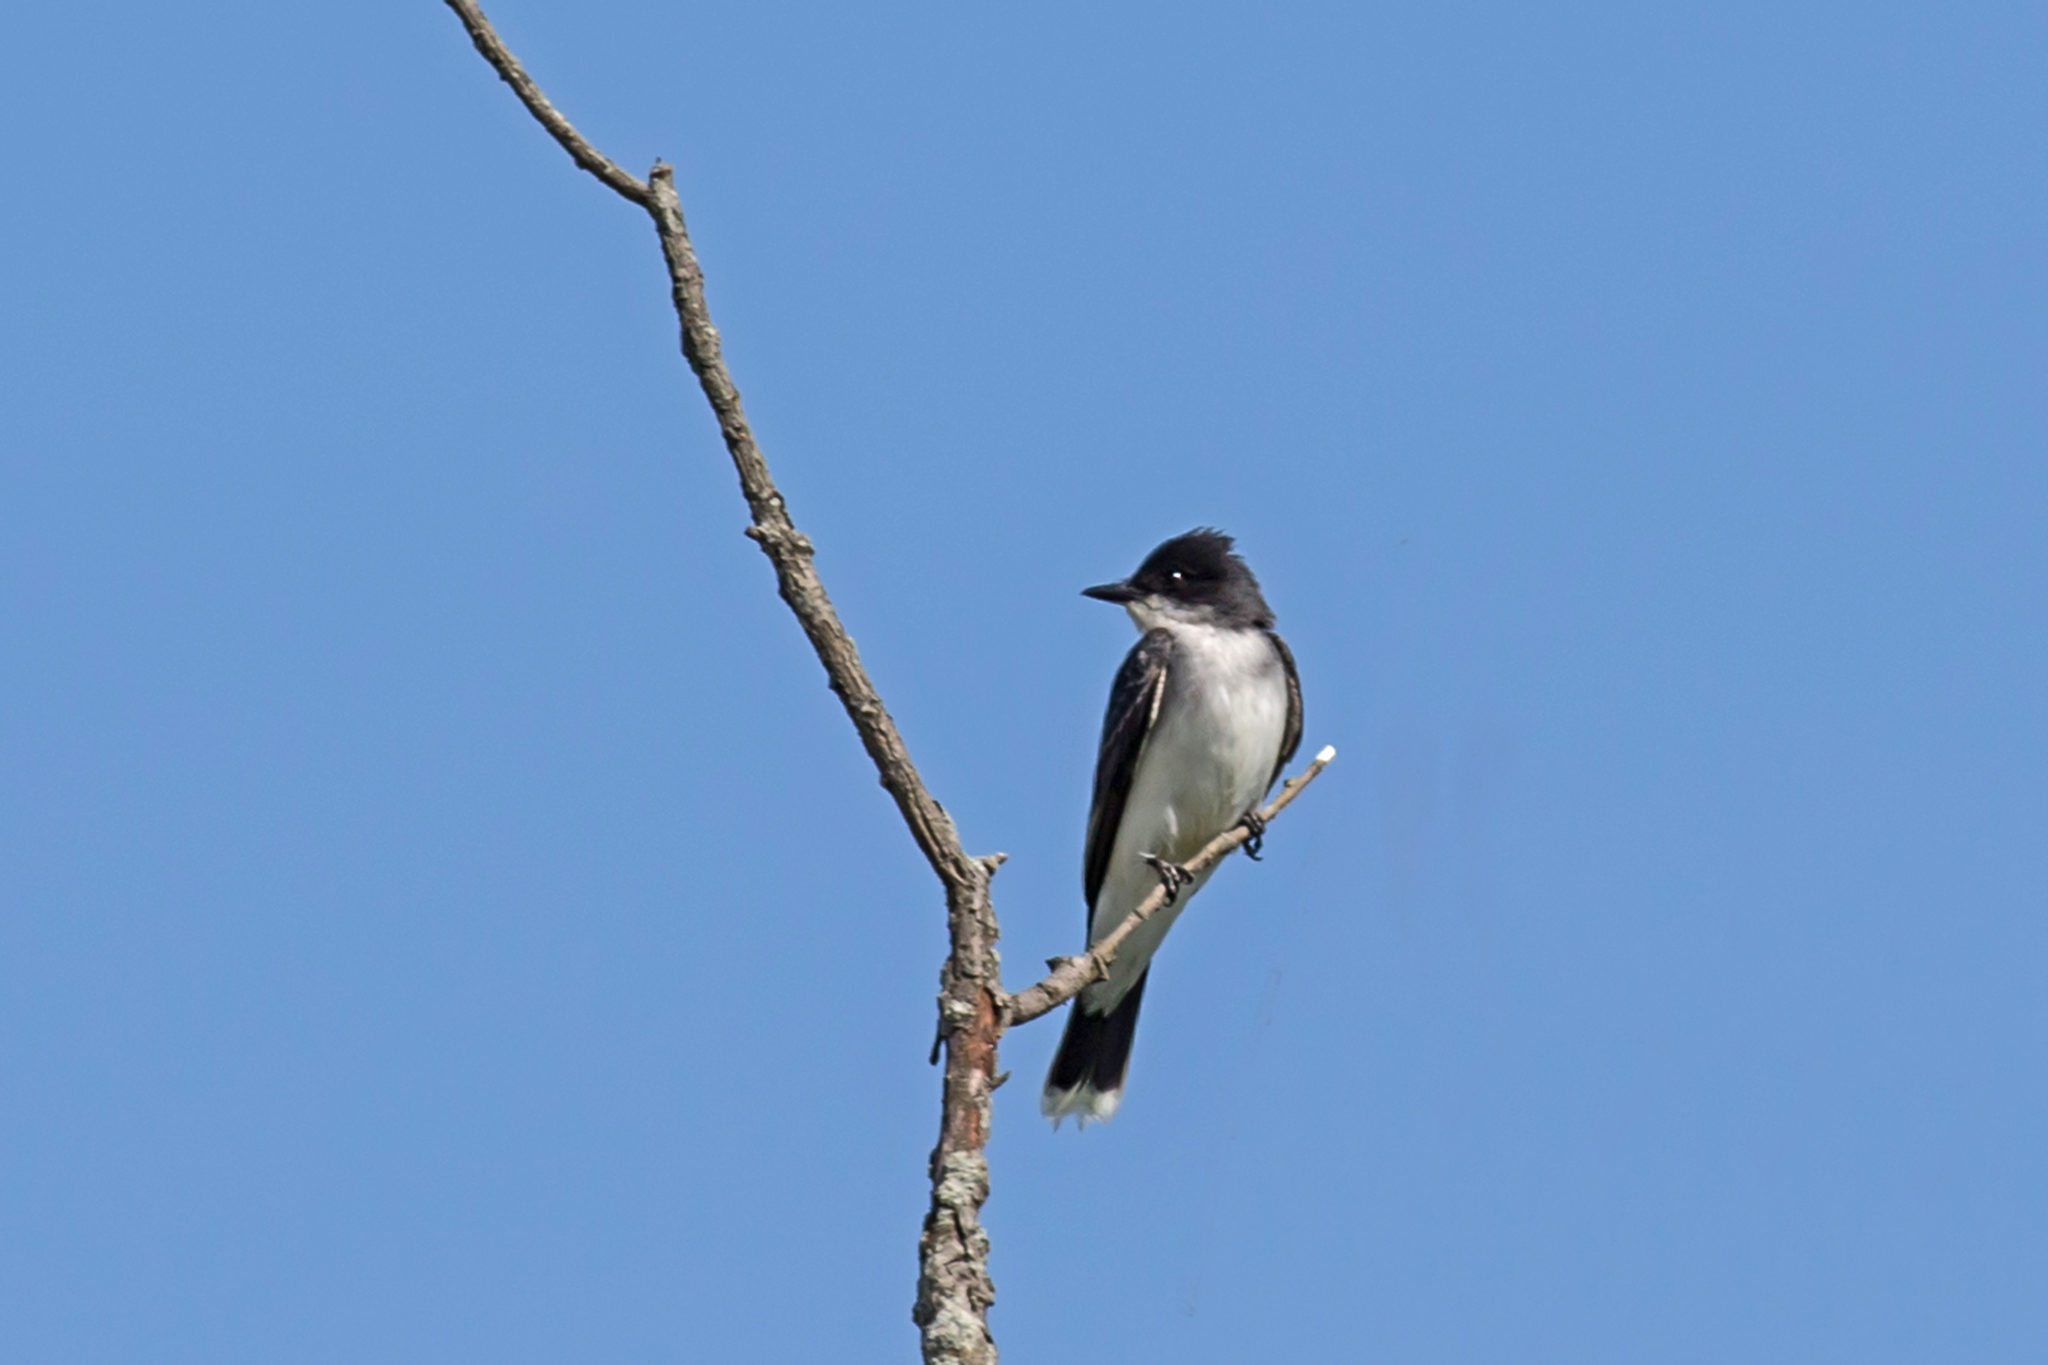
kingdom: Animalia
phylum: Chordata
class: Aves
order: Passeriformes
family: Tyrannidae
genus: Tyrannus
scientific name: Tyrannus tyrannus
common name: Eastern kingbird
